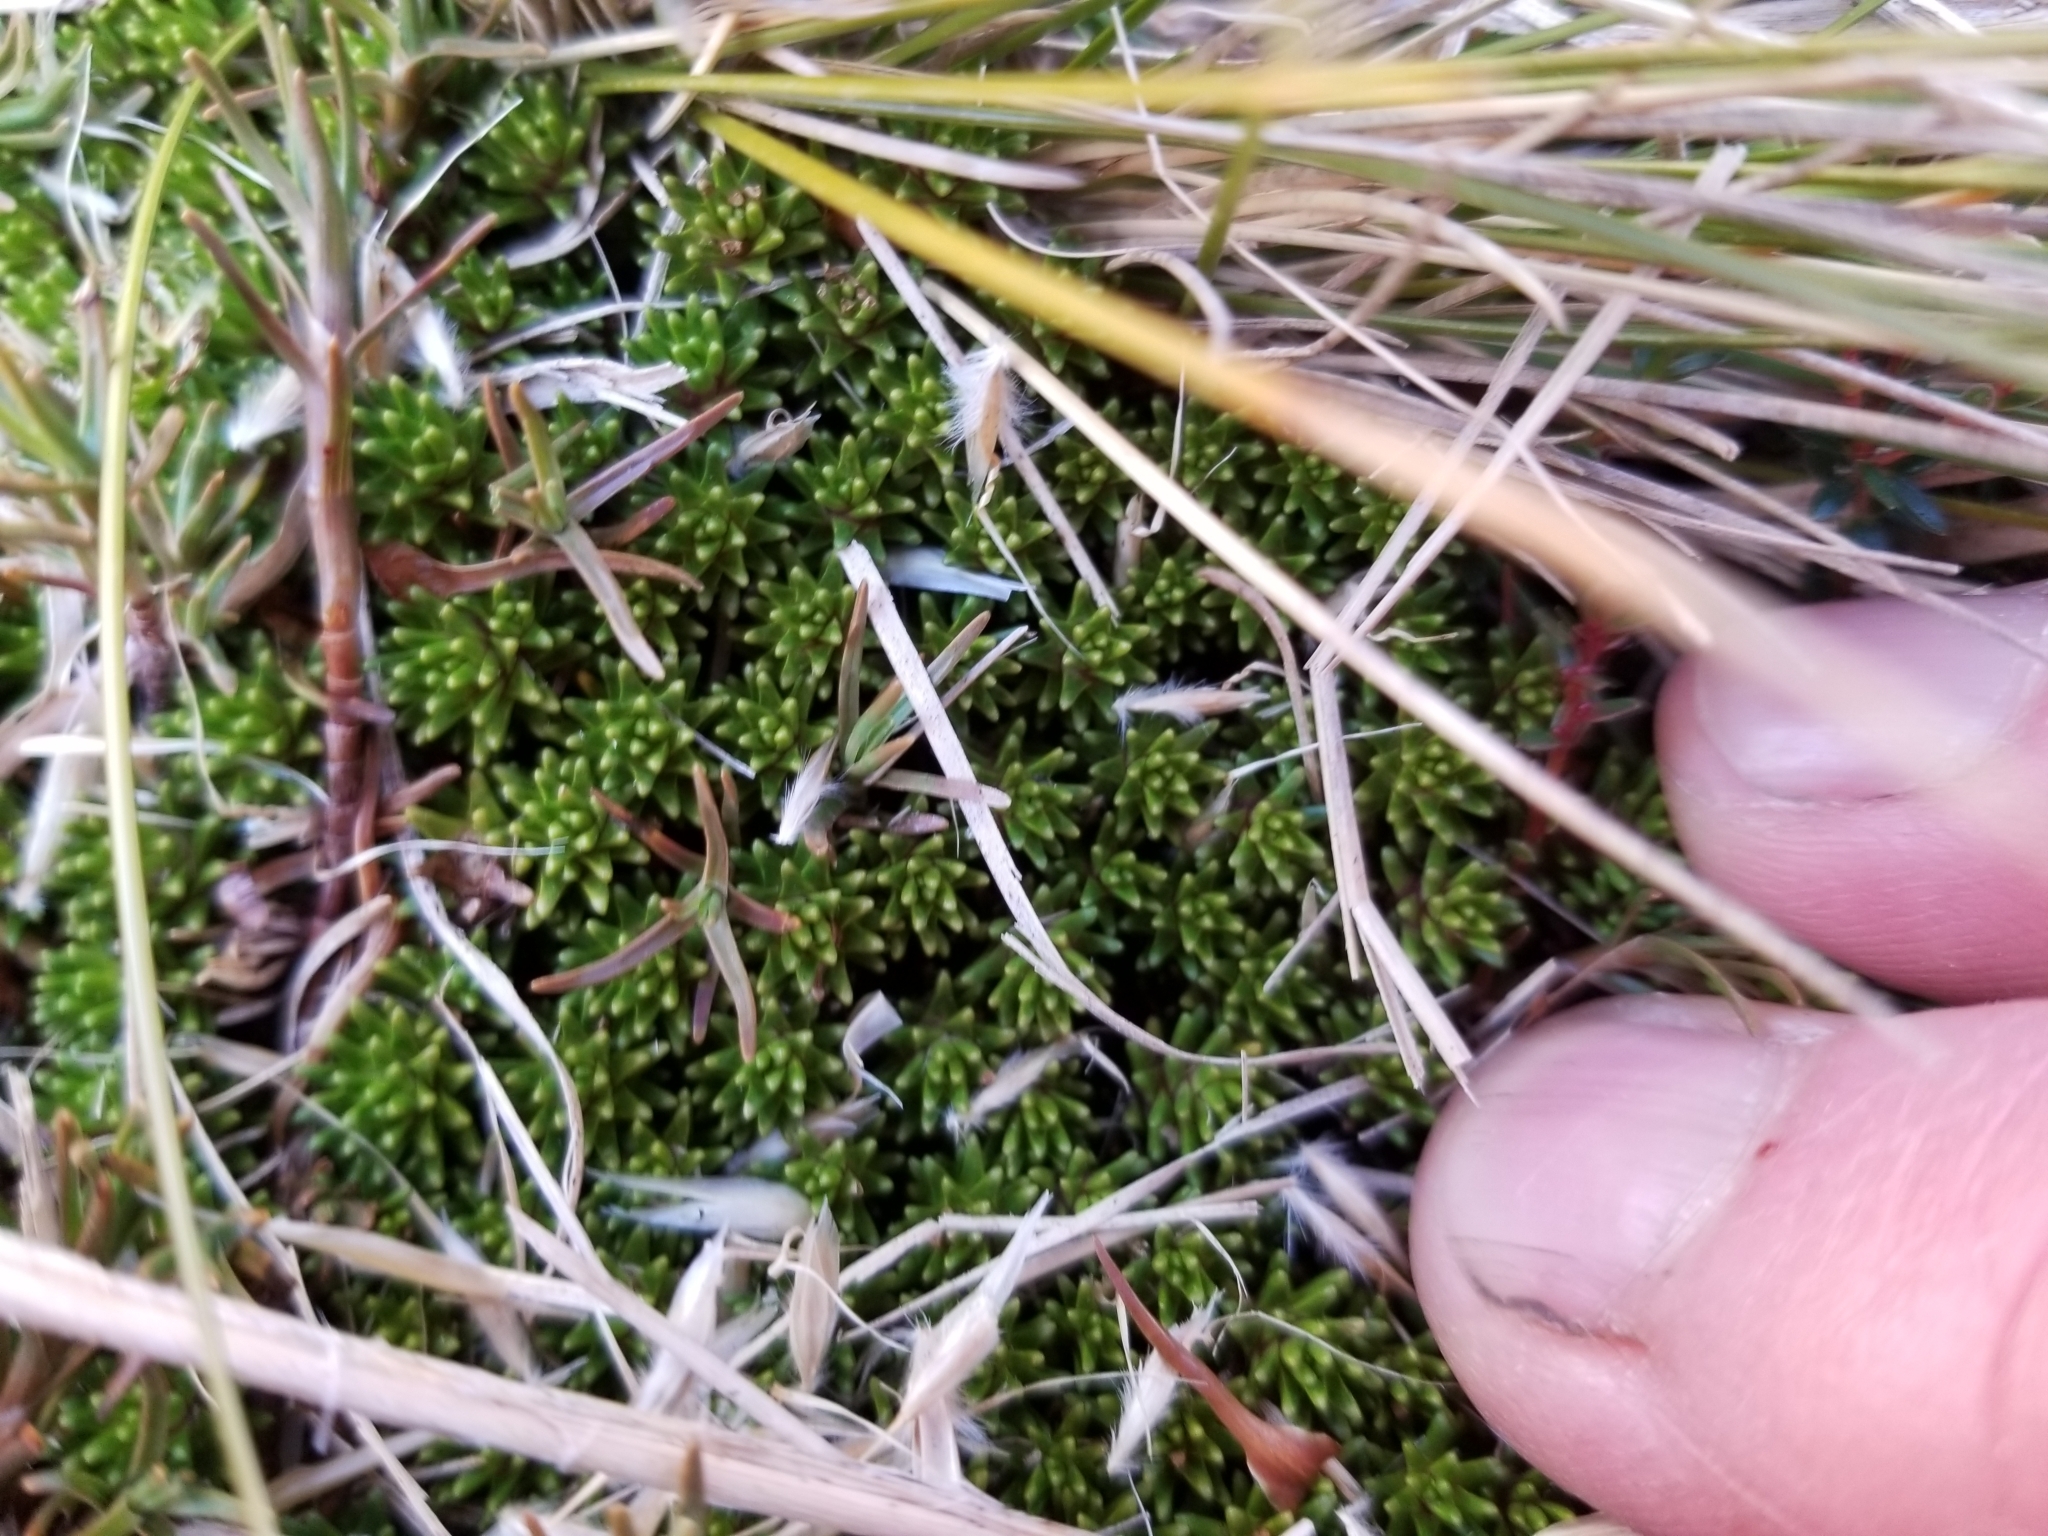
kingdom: Plantae
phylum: Tracheophyta
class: Magnoliopsida
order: Asterales
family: Stylidiaceae
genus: Donatia
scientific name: Donatia novae-zelandiae
